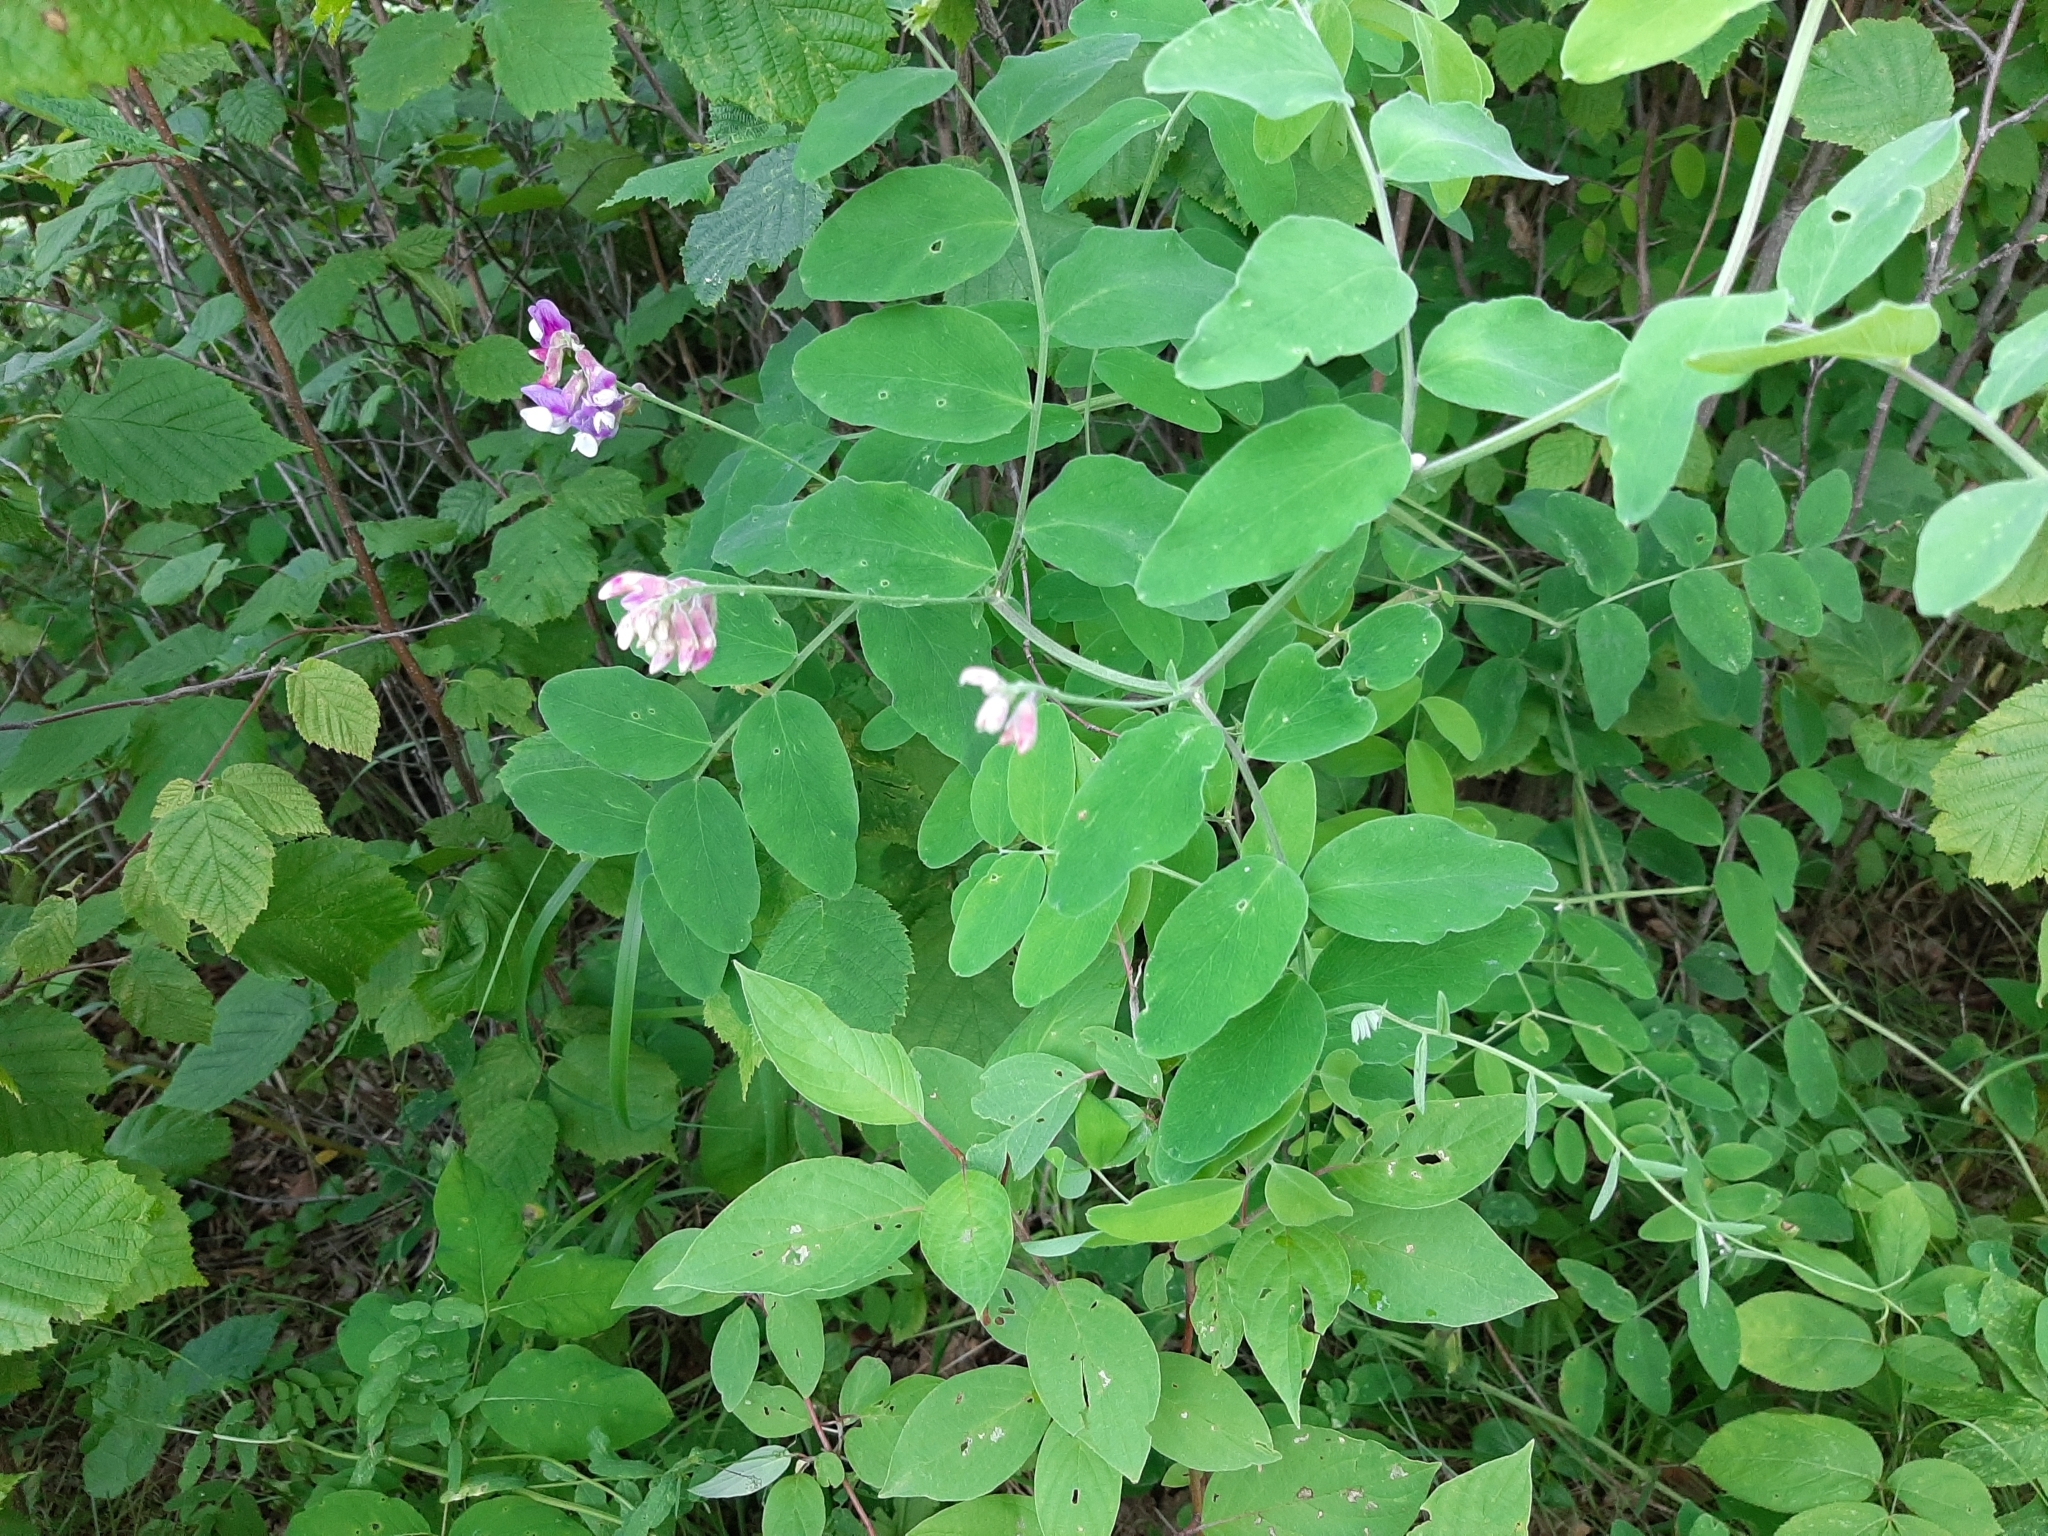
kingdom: Plantae
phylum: Tracheophyta
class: Magnoliopsida
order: Fabales
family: Fabaceae
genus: Lathyrus
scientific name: Lathyrus venosus
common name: Forest-pea
